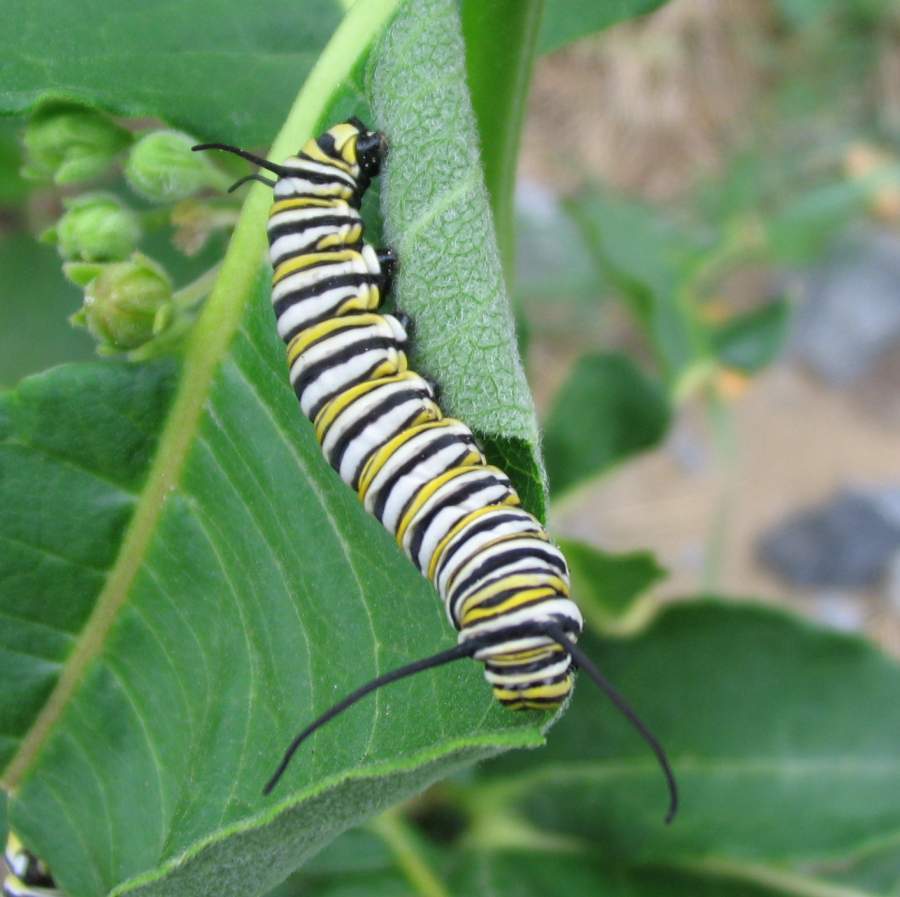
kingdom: Animalia
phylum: Arthropoda
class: Insecta
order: Lepidoptera
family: Nymphalidae
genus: Danaus
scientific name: Danaus plexippus
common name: Monarch
